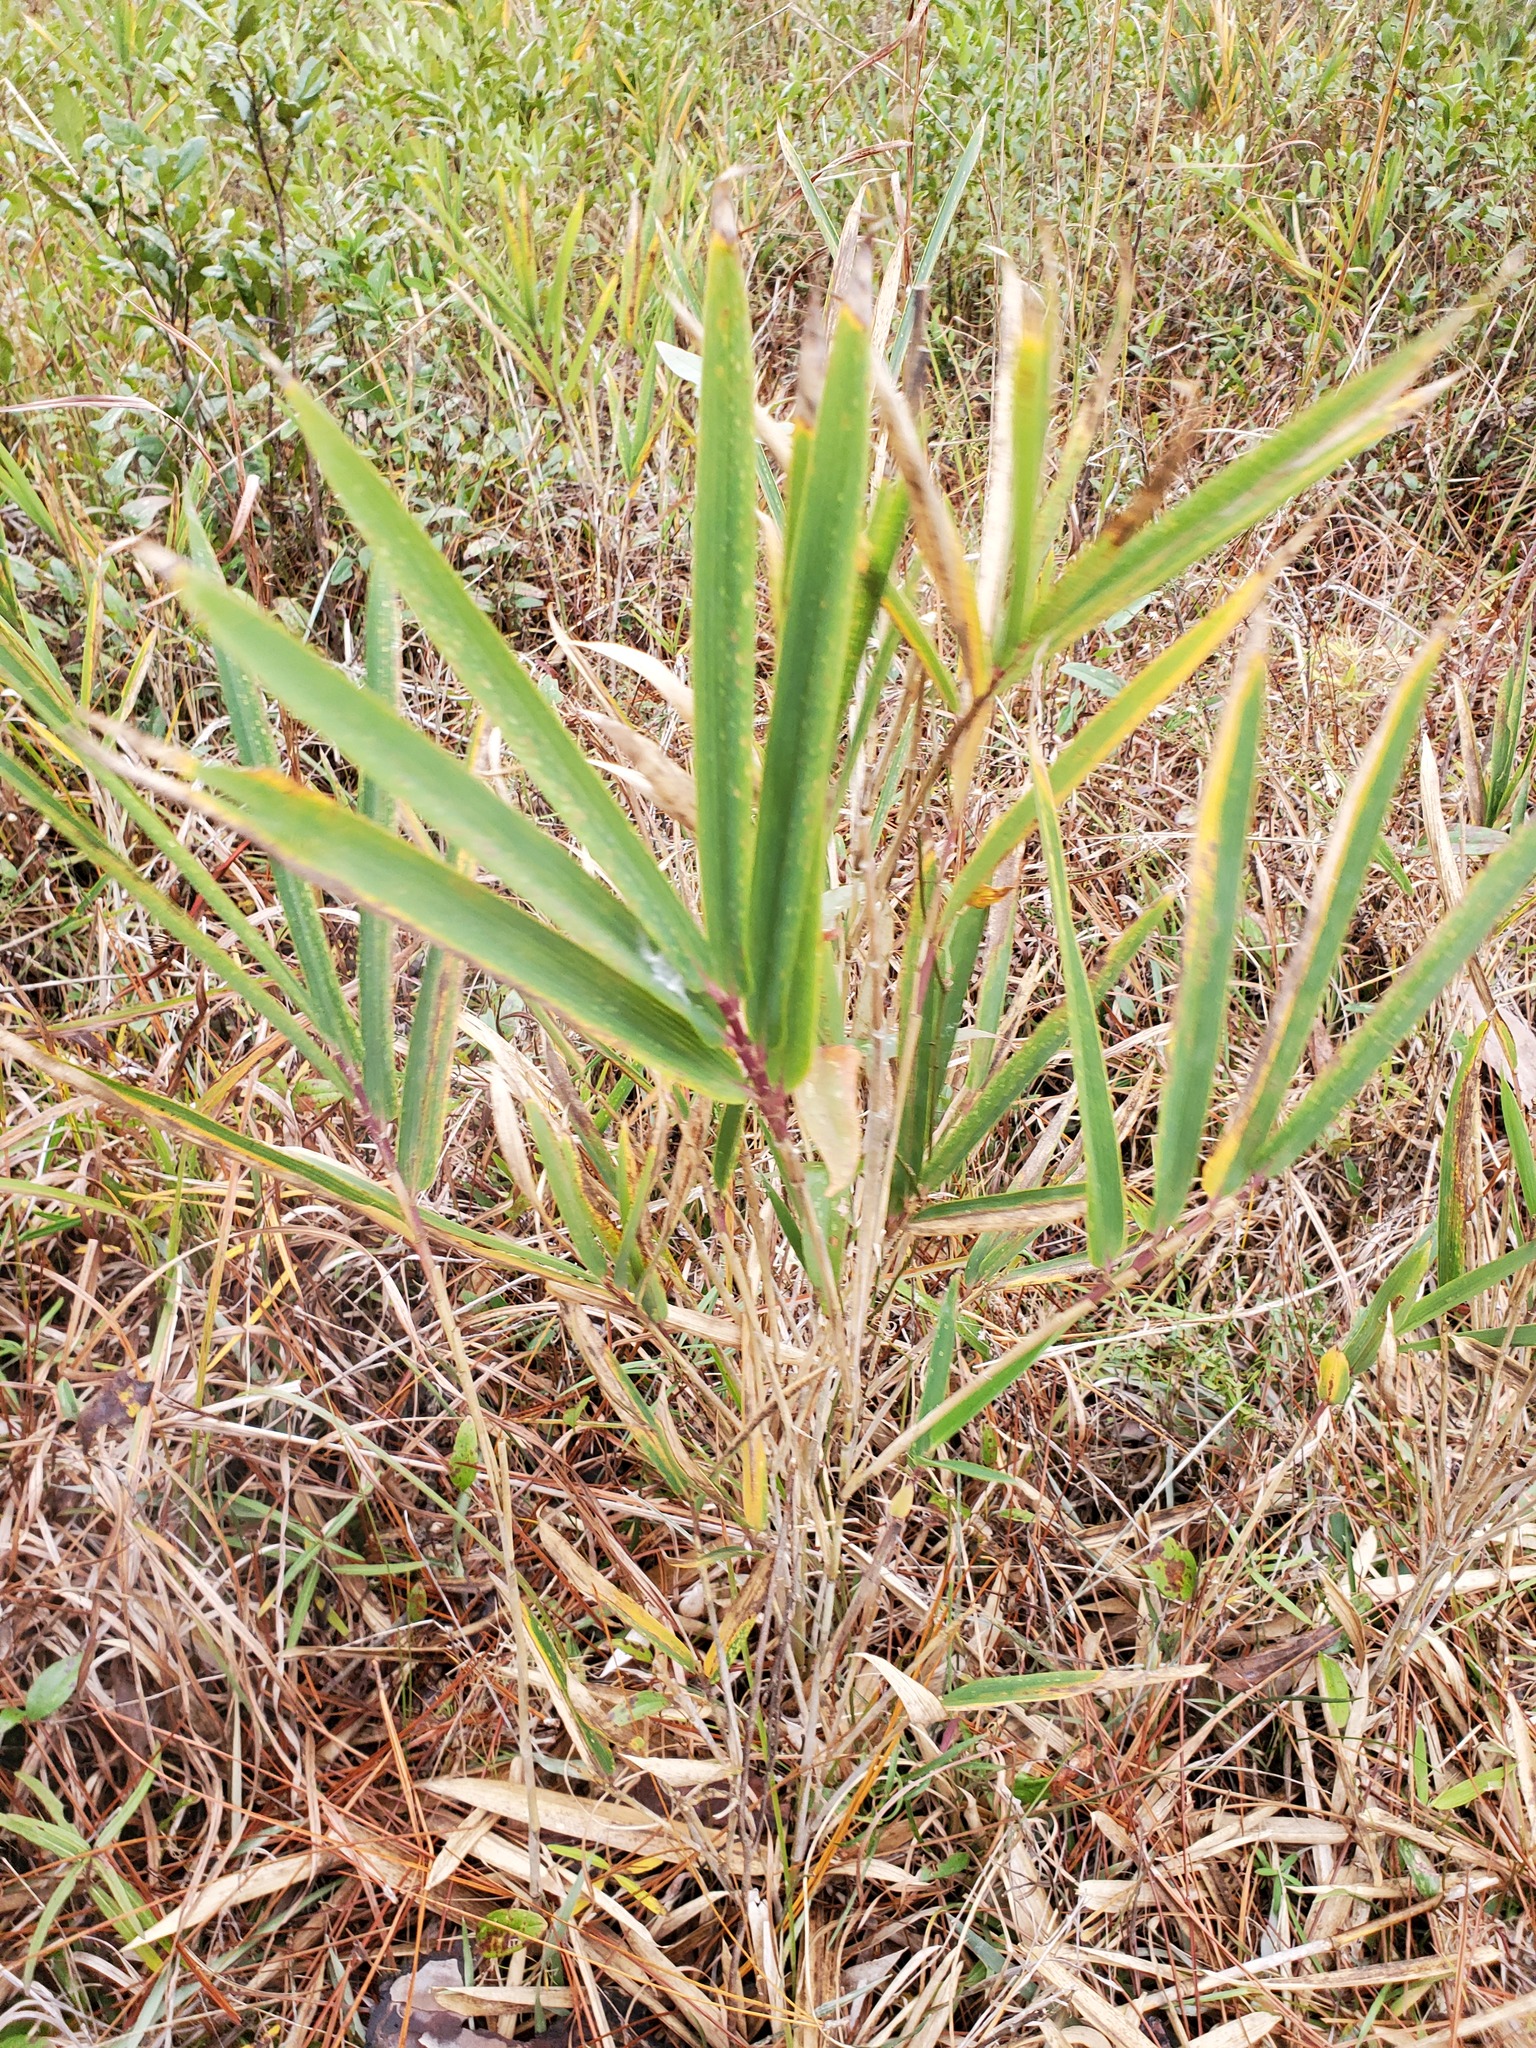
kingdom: Plantae
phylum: Tracheophyta
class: Liliopsida
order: Poales
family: Poaceae
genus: Arundinaria
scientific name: Arundinaria tecta
